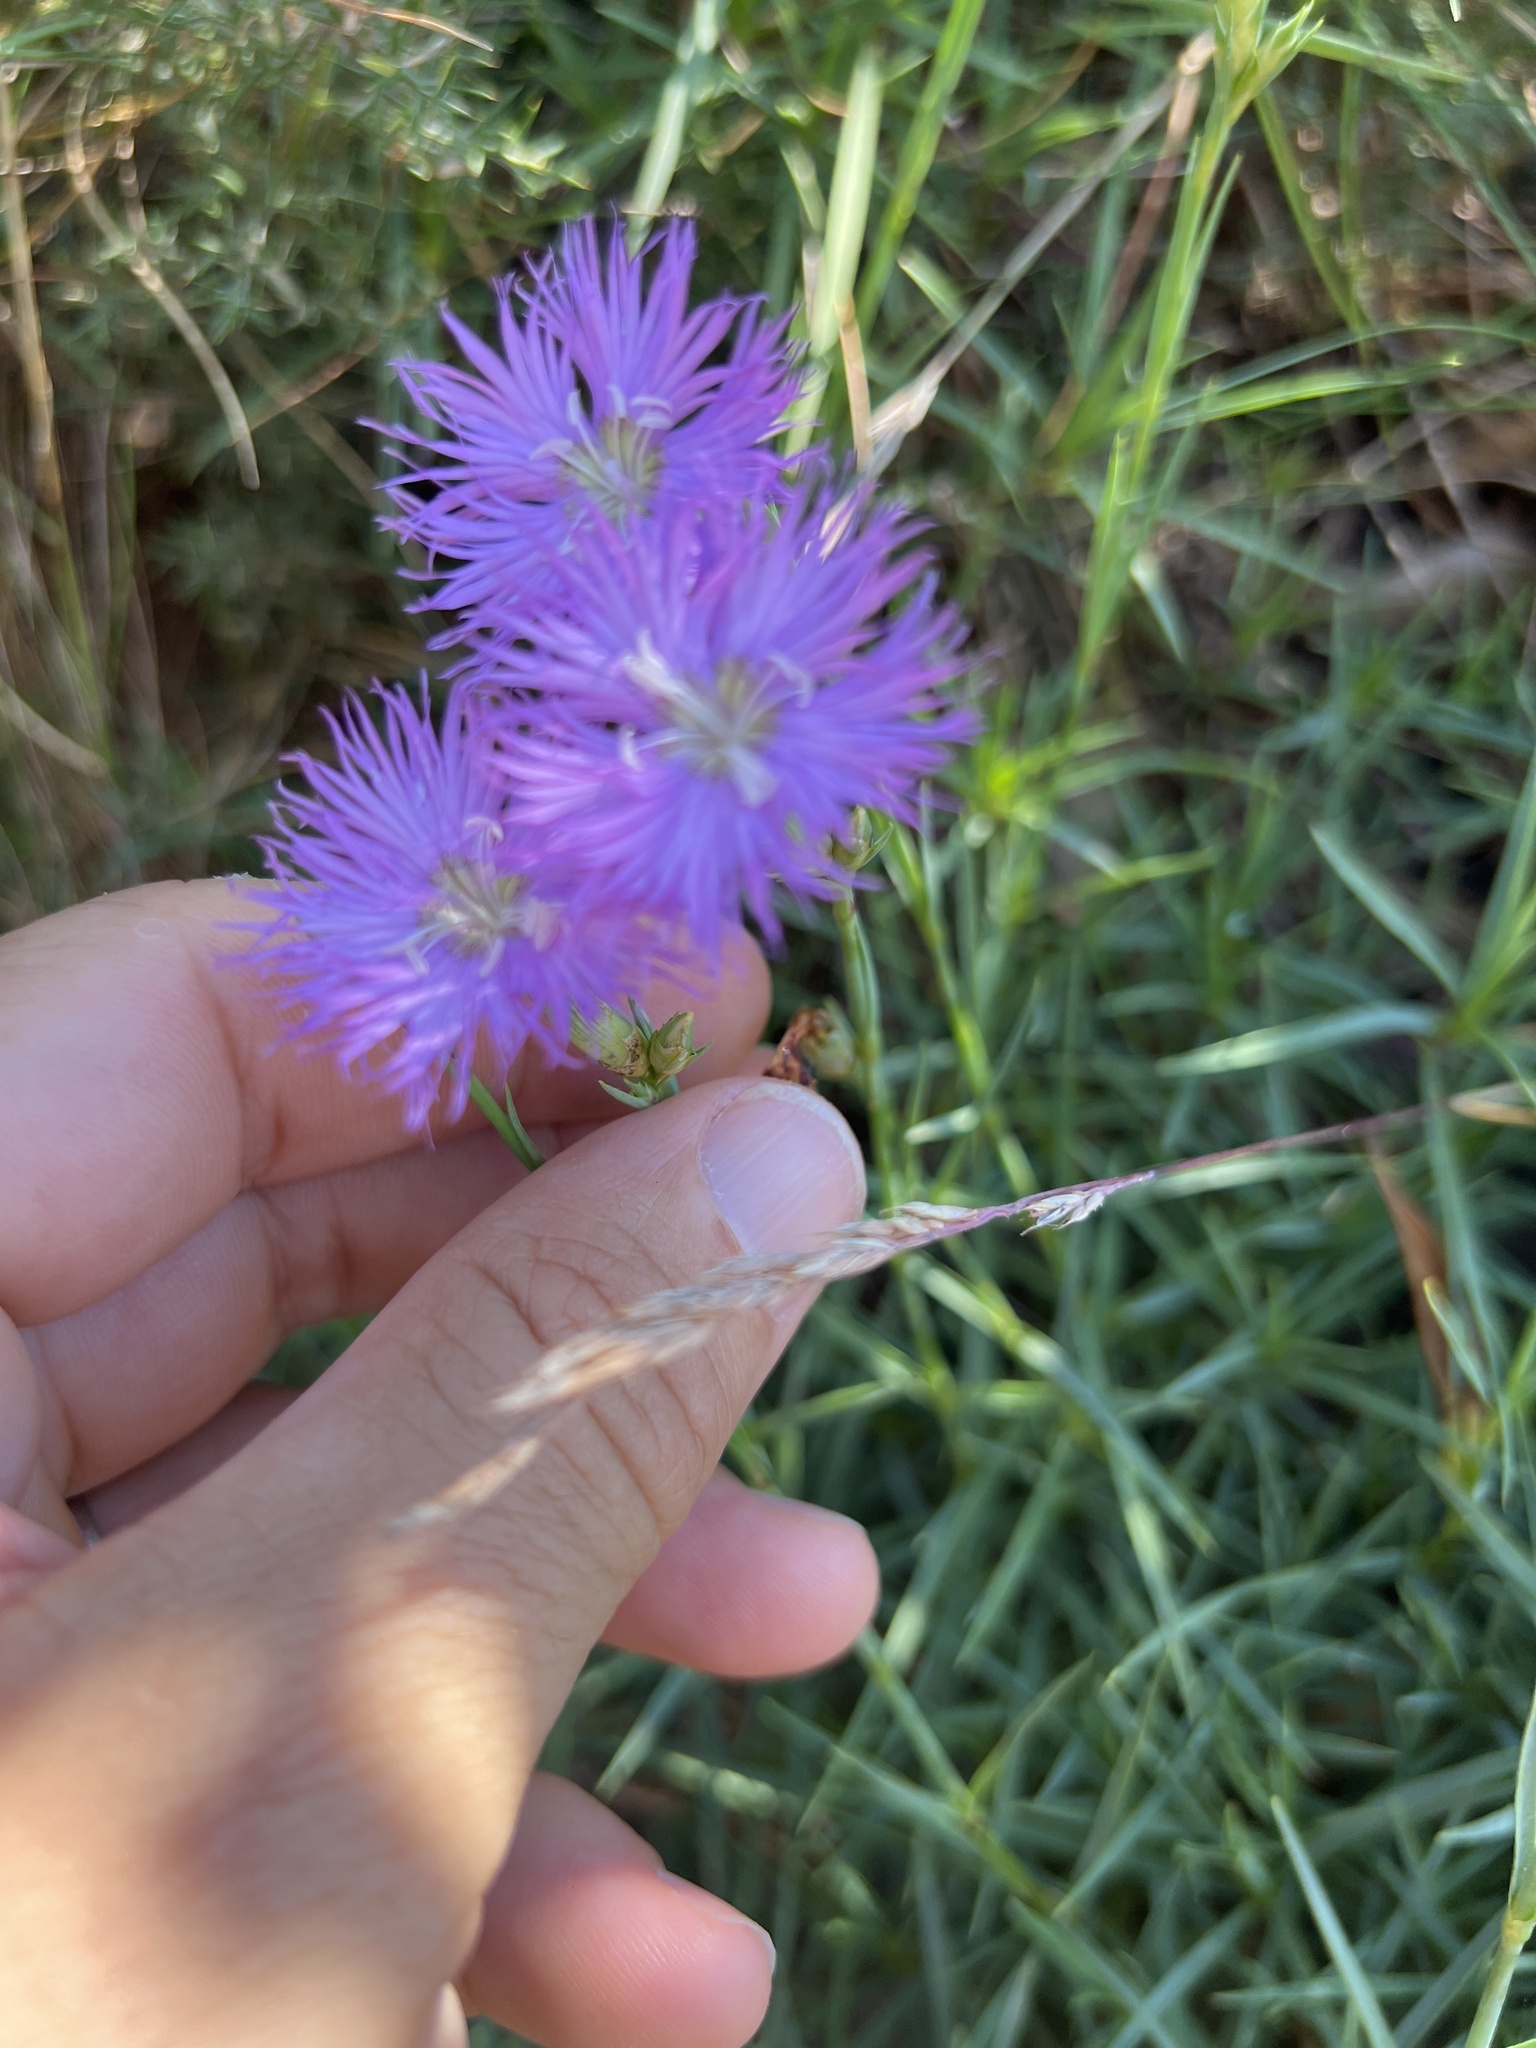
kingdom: Plantae
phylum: Tracheophyta
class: Magnoliopsida
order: Caryophyllales
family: Caryophyllaceae
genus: Dianthus
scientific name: Dianthus hyssopifolius
